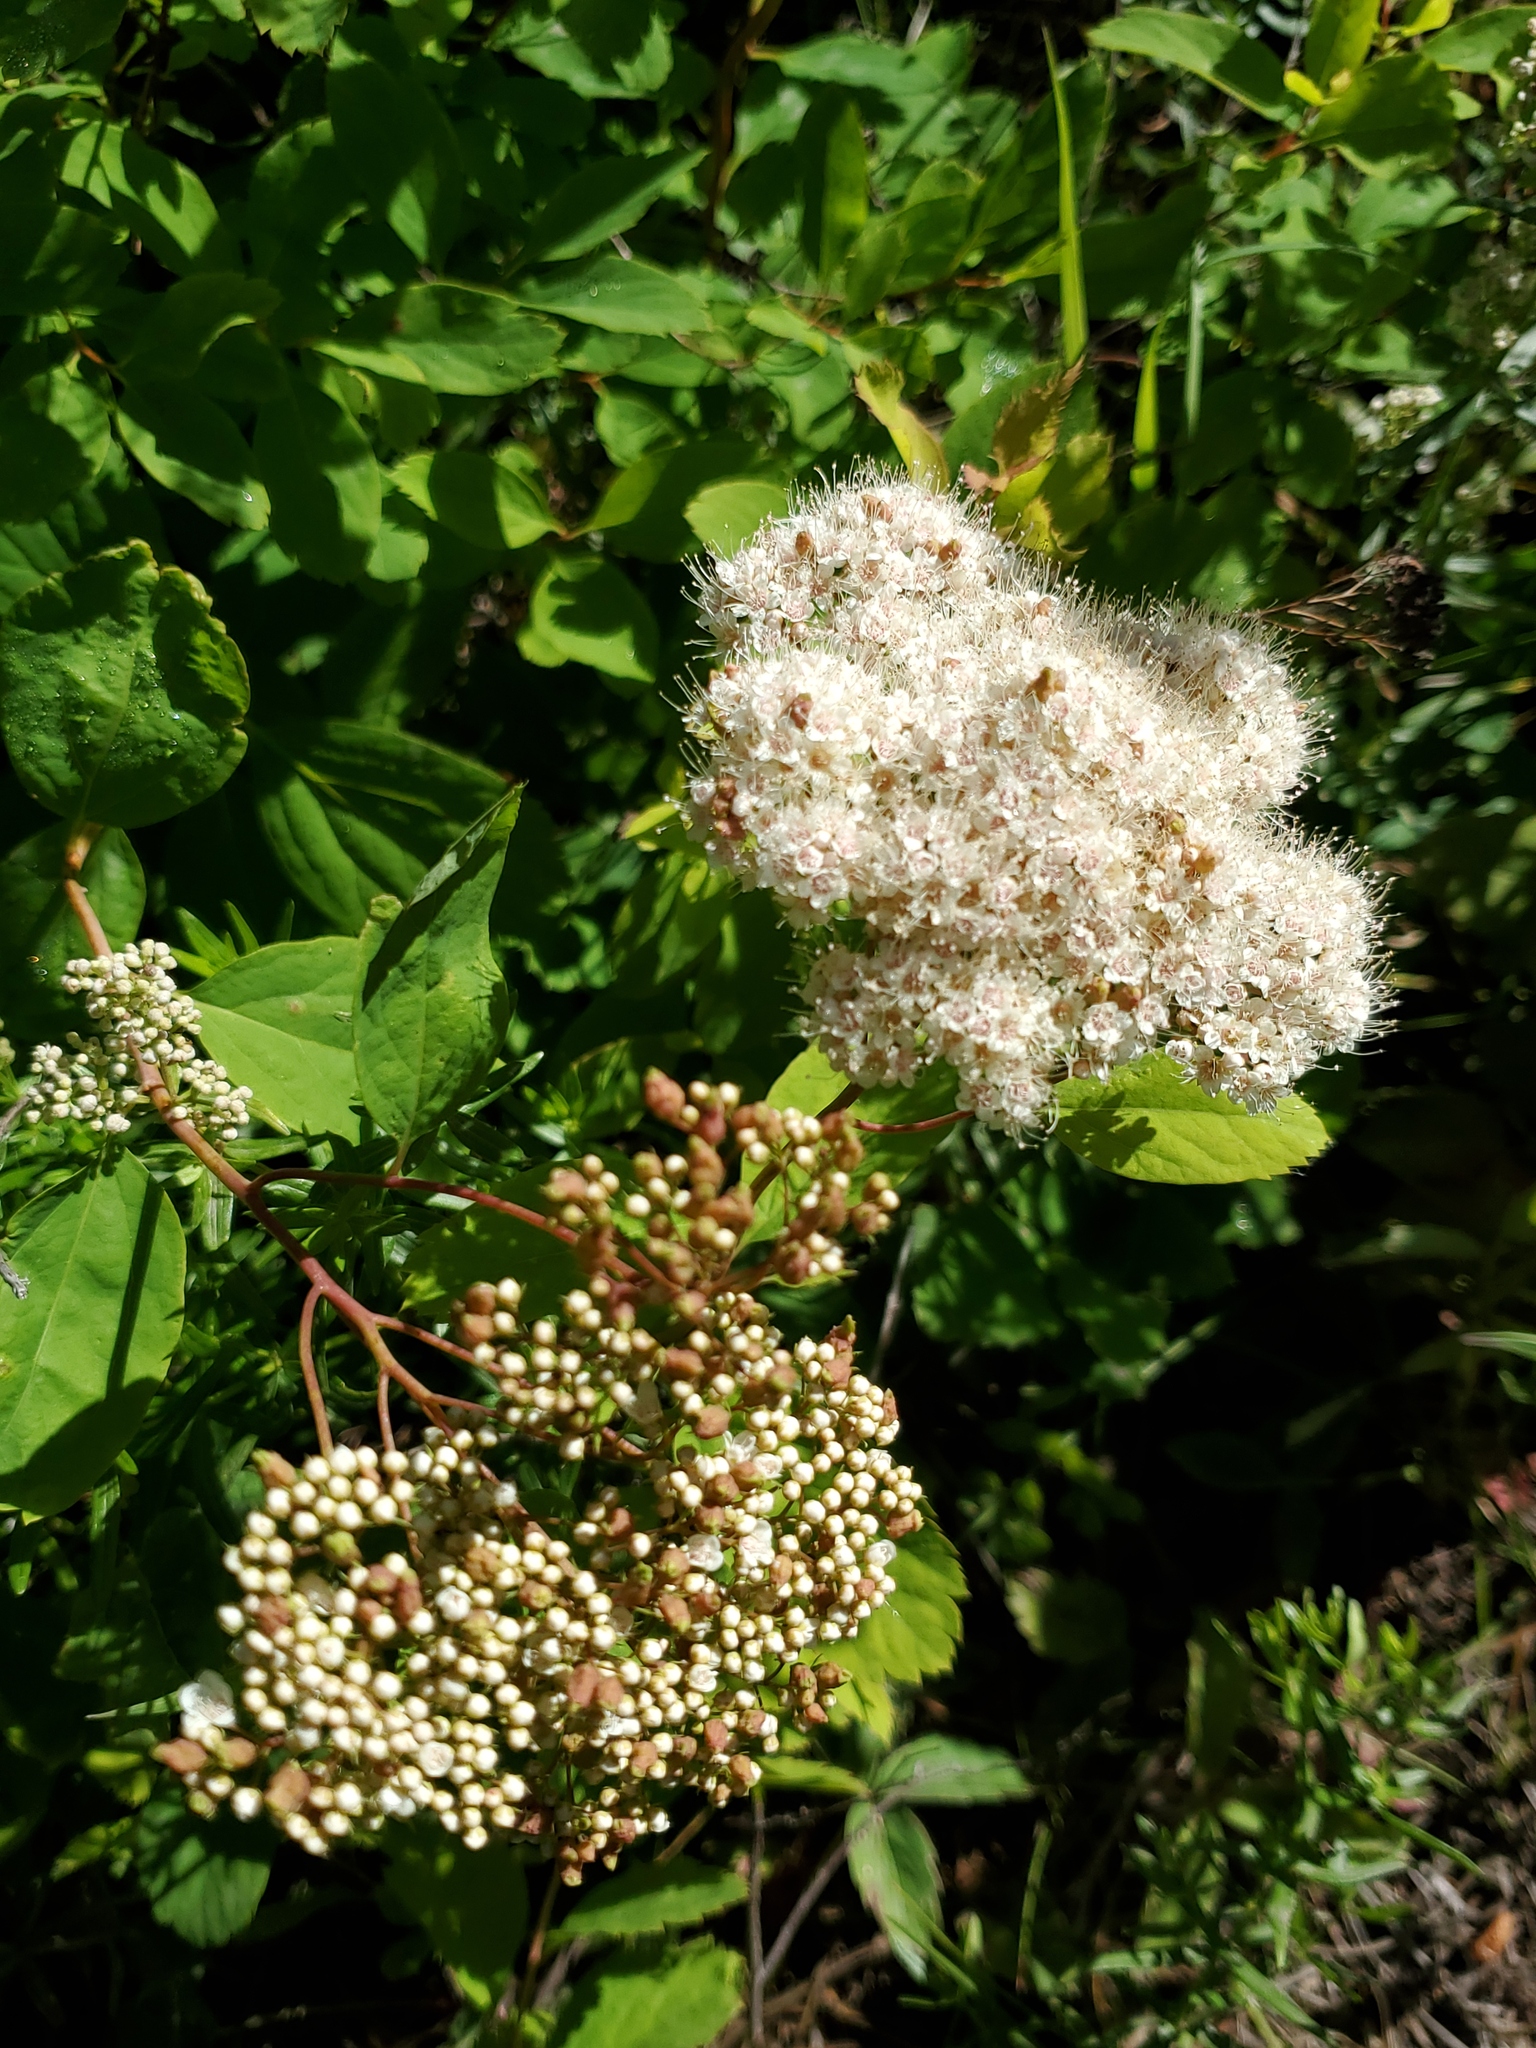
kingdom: Plantae
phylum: Tracheophyta
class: Magnoliopsida
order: Rosales
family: Rosaceae
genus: Spiraea
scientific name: Spiraea lucida
